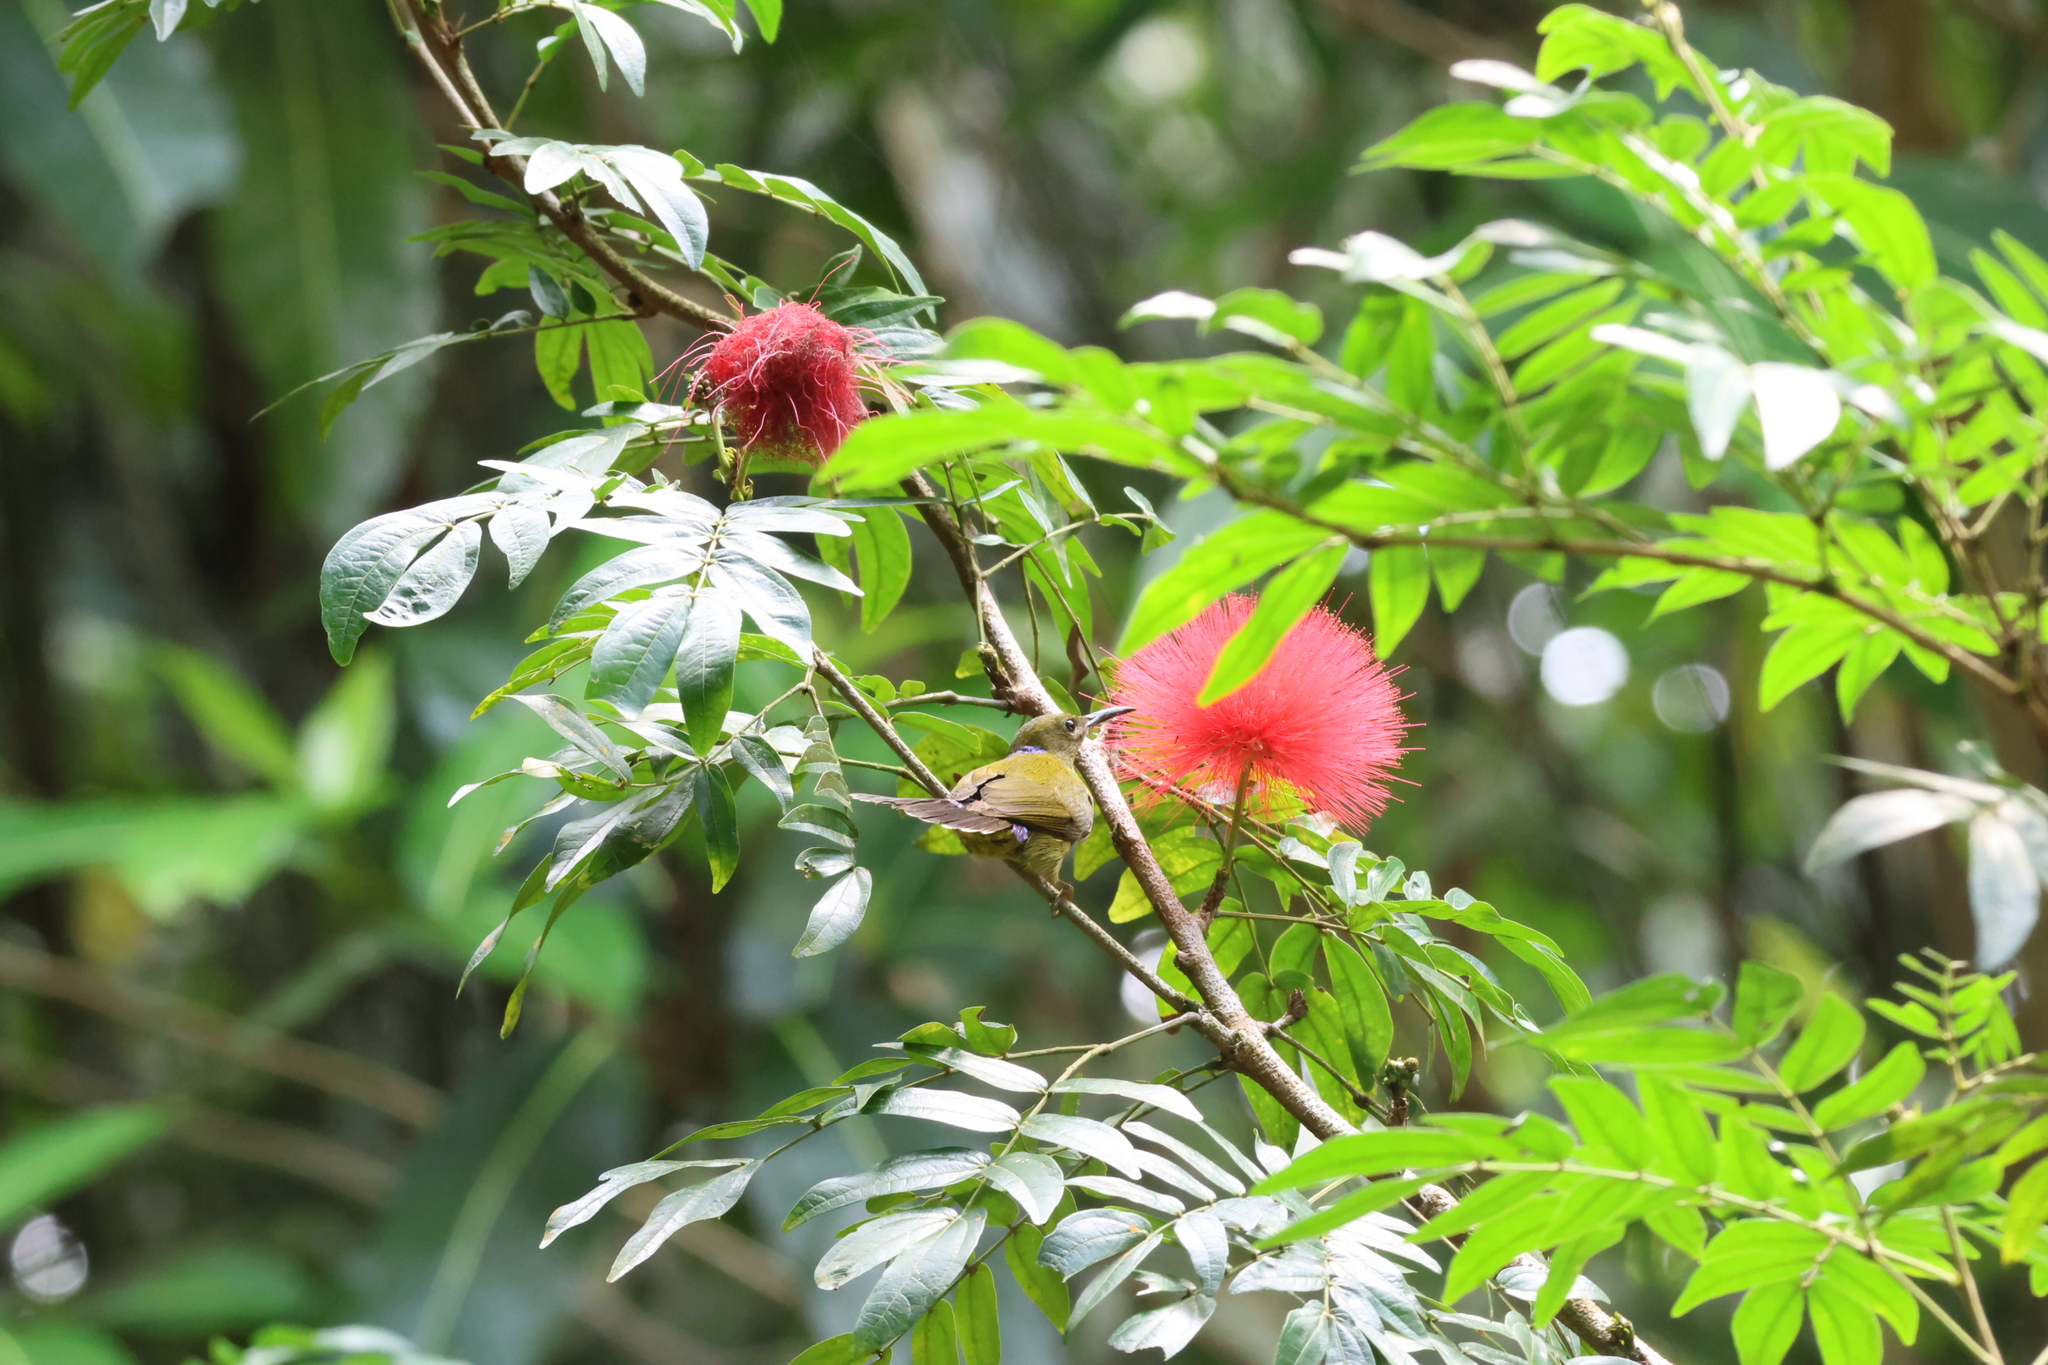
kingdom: Animalia
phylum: Chordata
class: Aves
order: Passeriformes
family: Nectariniidae
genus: Hypogramma
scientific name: Hypogramma hypogrammicum
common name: Purple-naped sunbird
